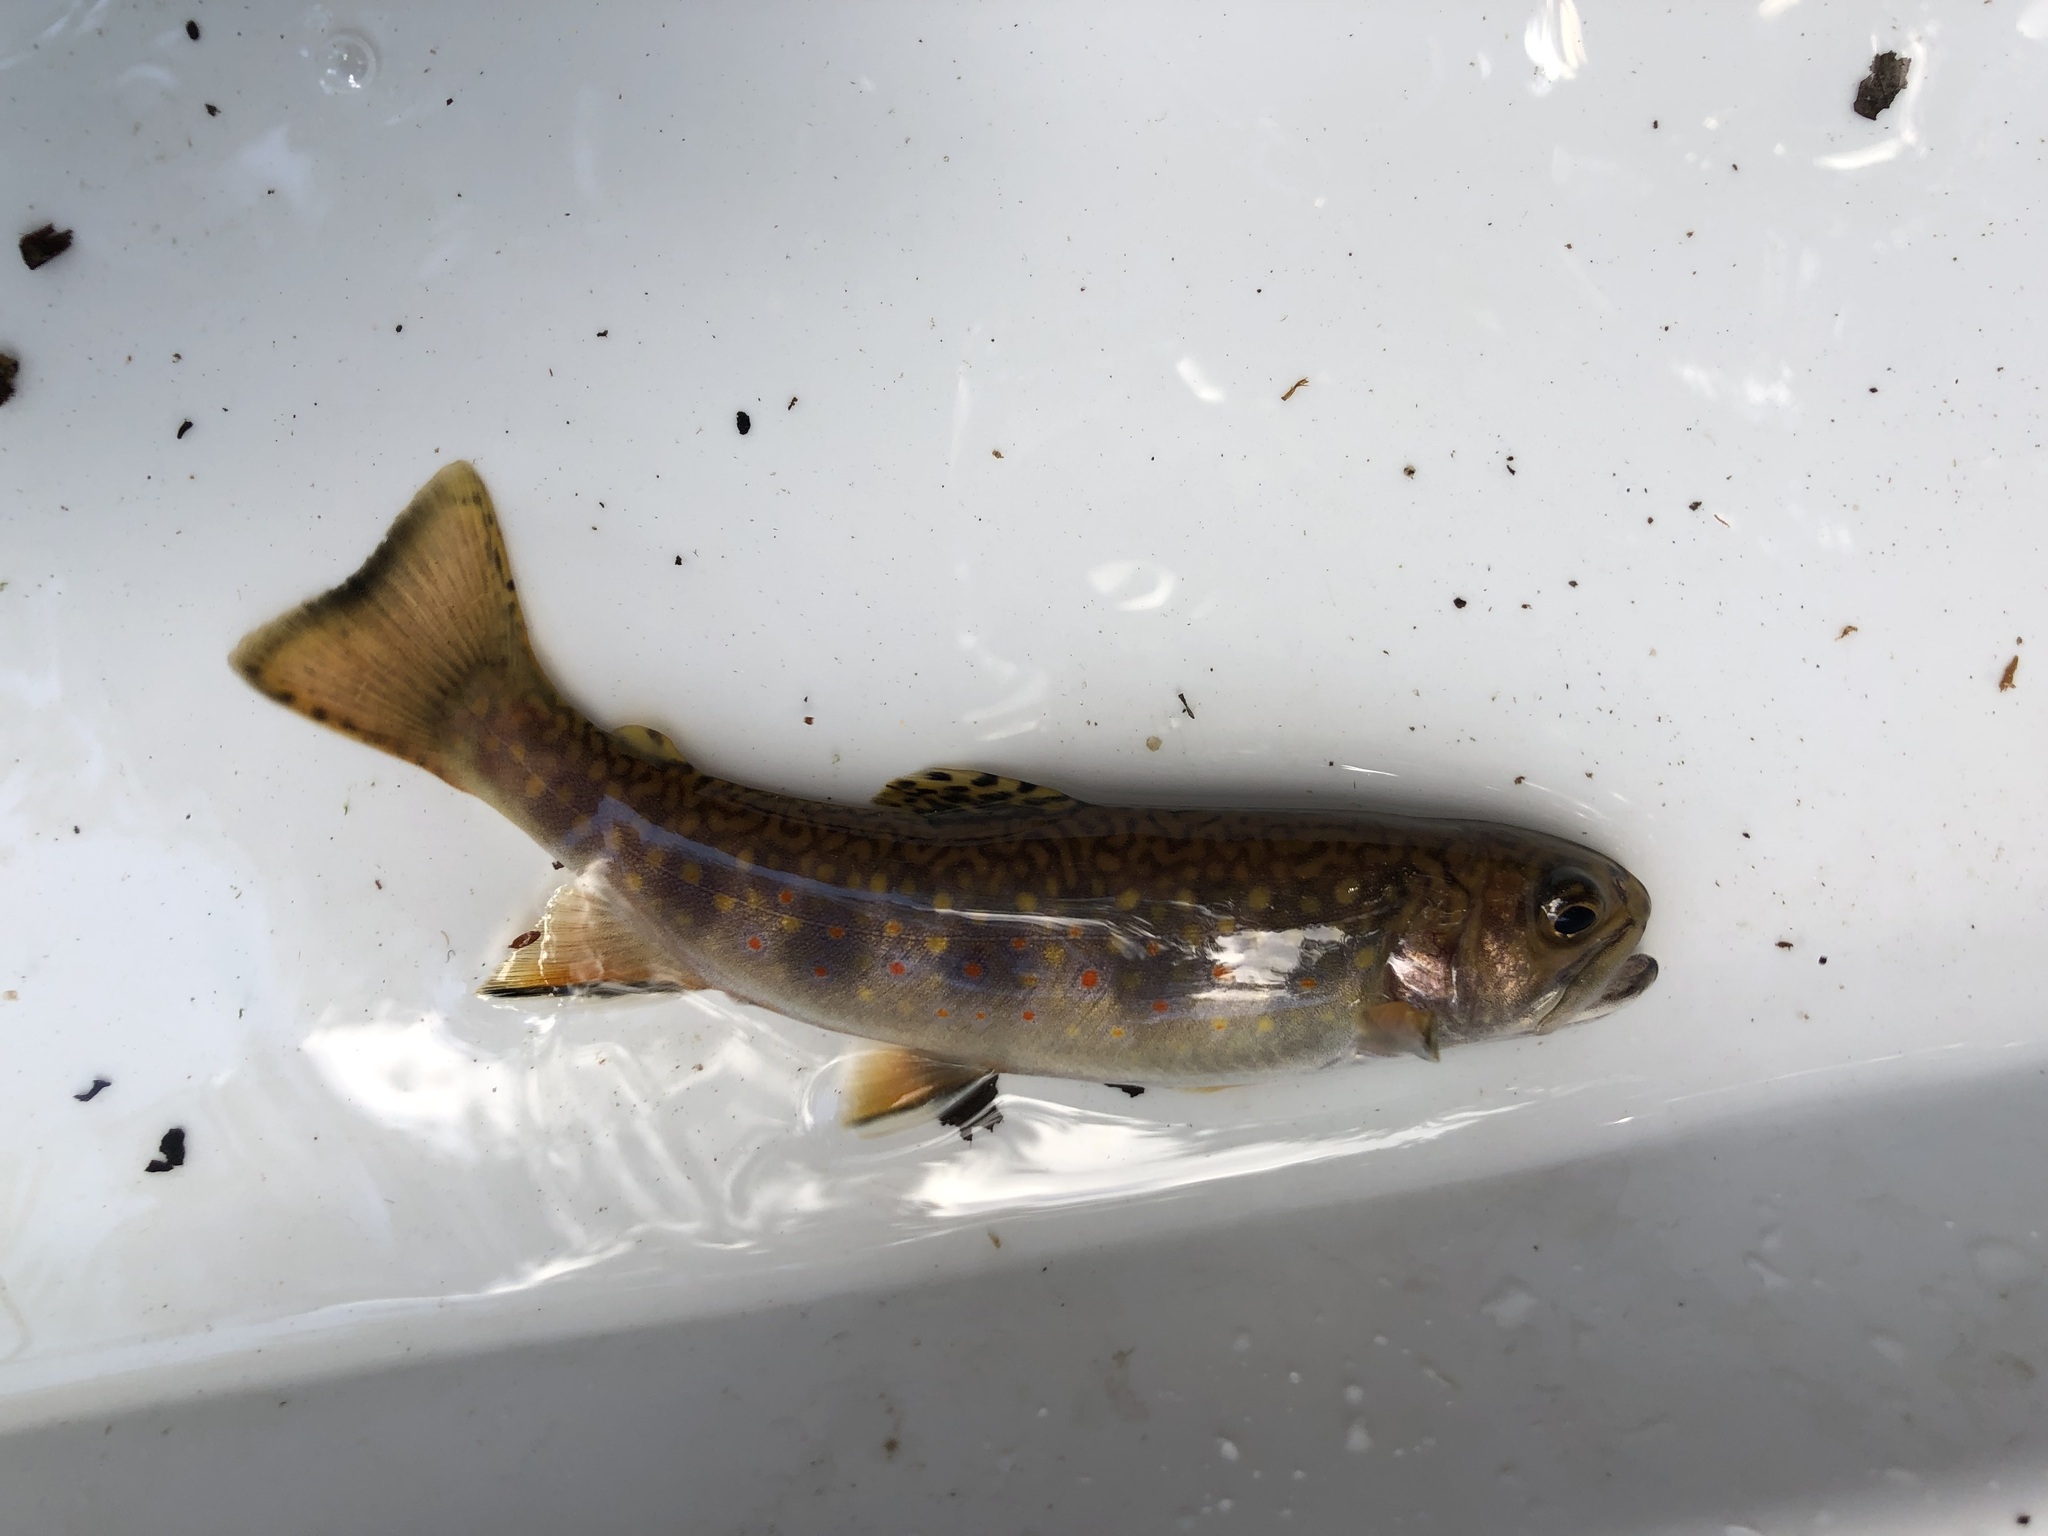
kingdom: Animalia
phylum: Chordata
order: Salmoniformes
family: Salmonidae
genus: Salvelinus
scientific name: Salvelinus fontinalis
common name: Brook trout
